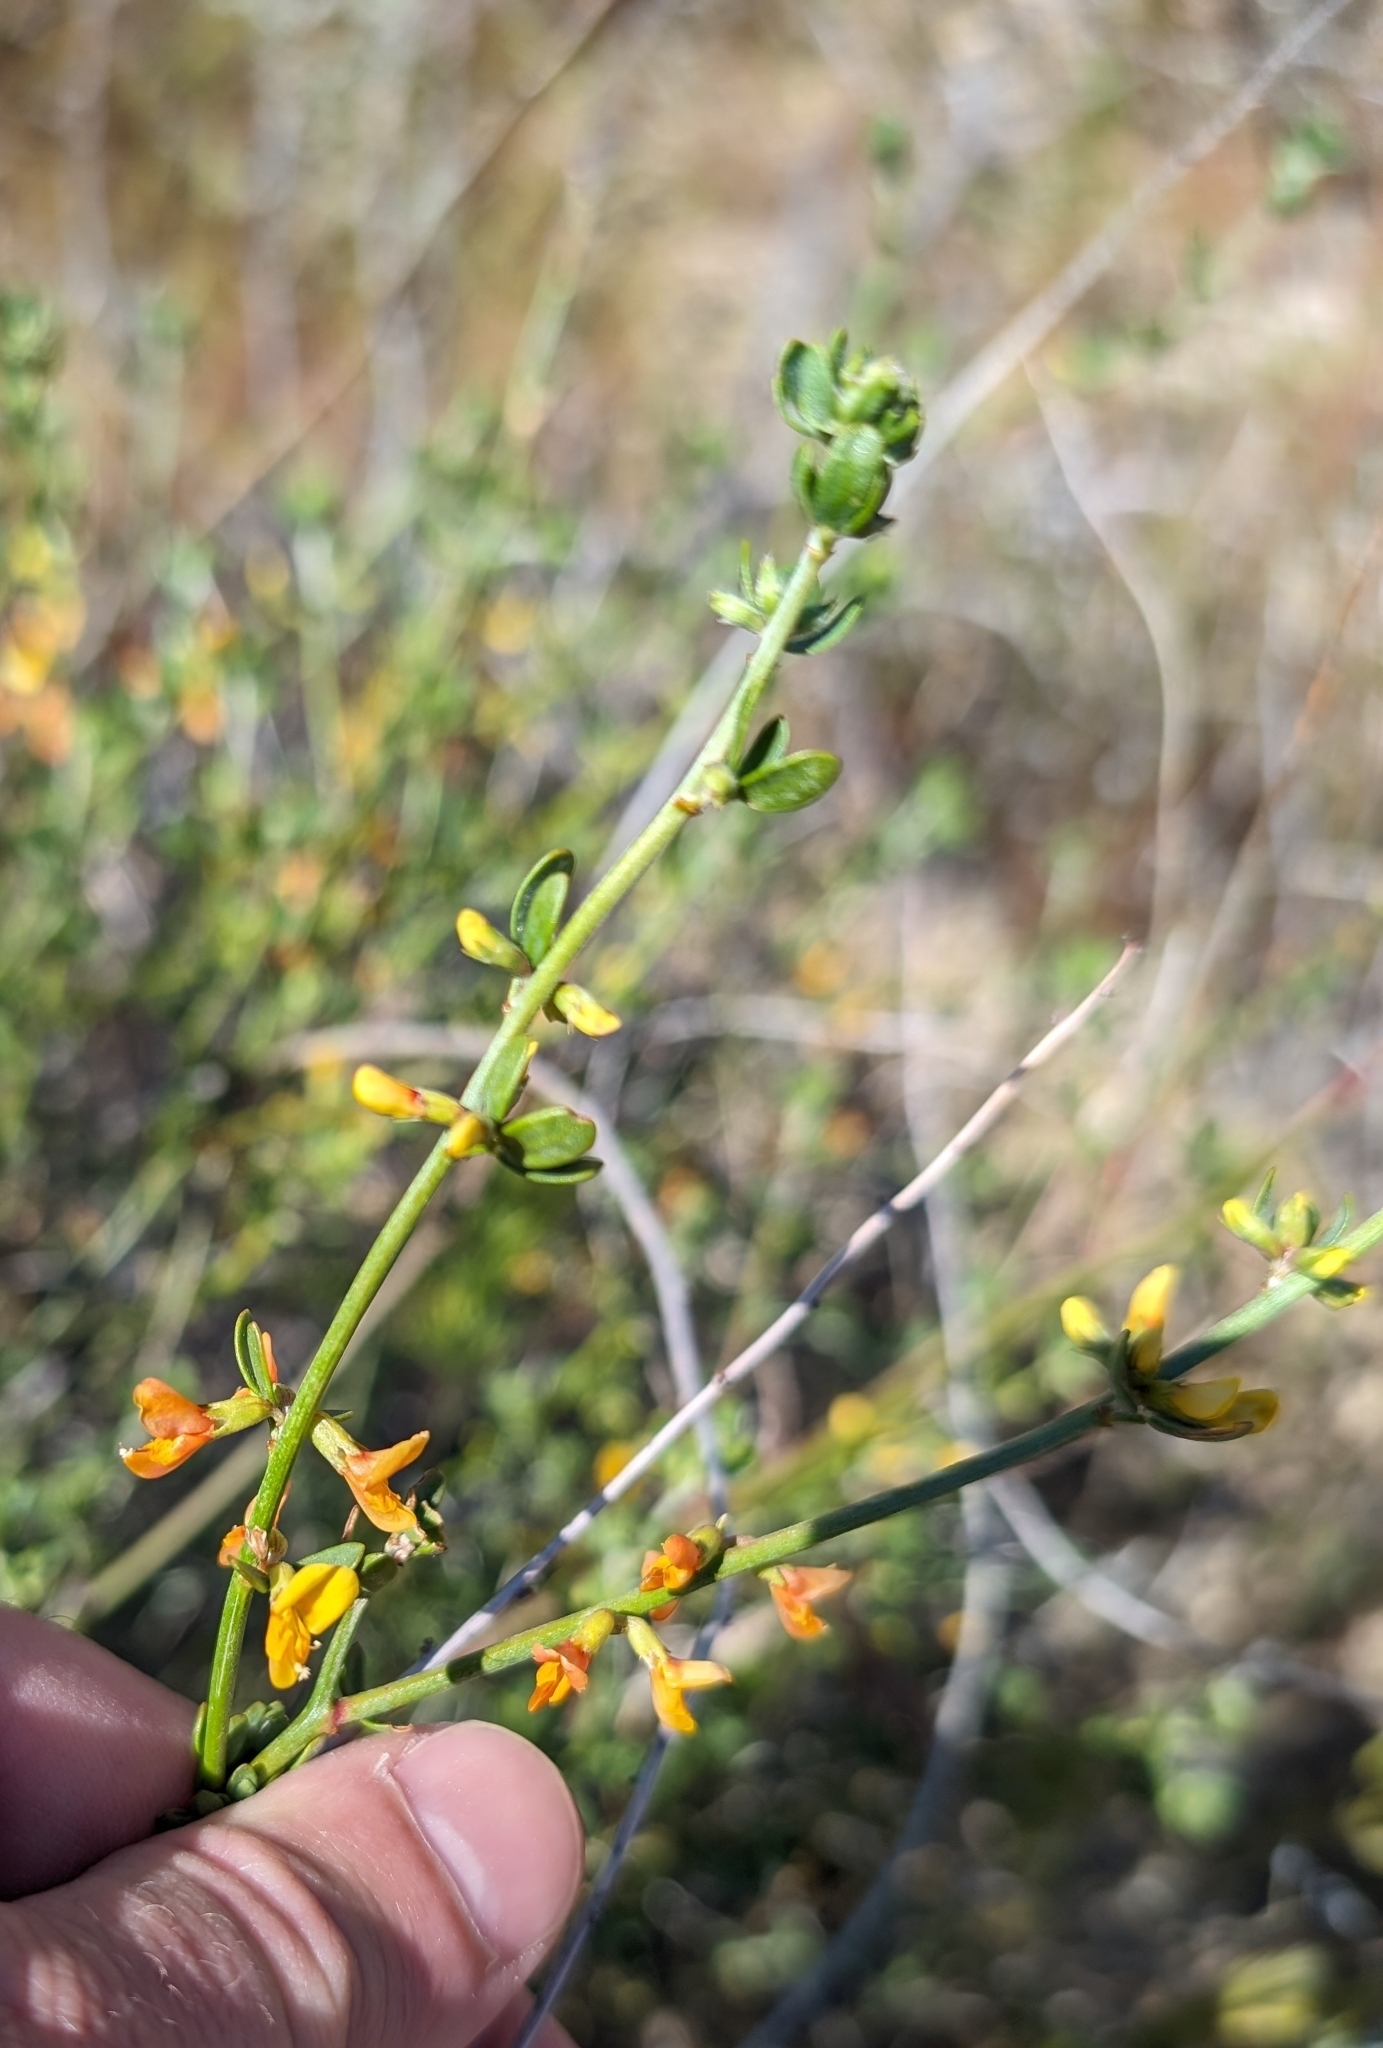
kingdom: Plantae
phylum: Tracheophyta
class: Magnoliopsida
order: Fabales
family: Fabaceae
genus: Acmispon
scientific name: Acmispon glaber
